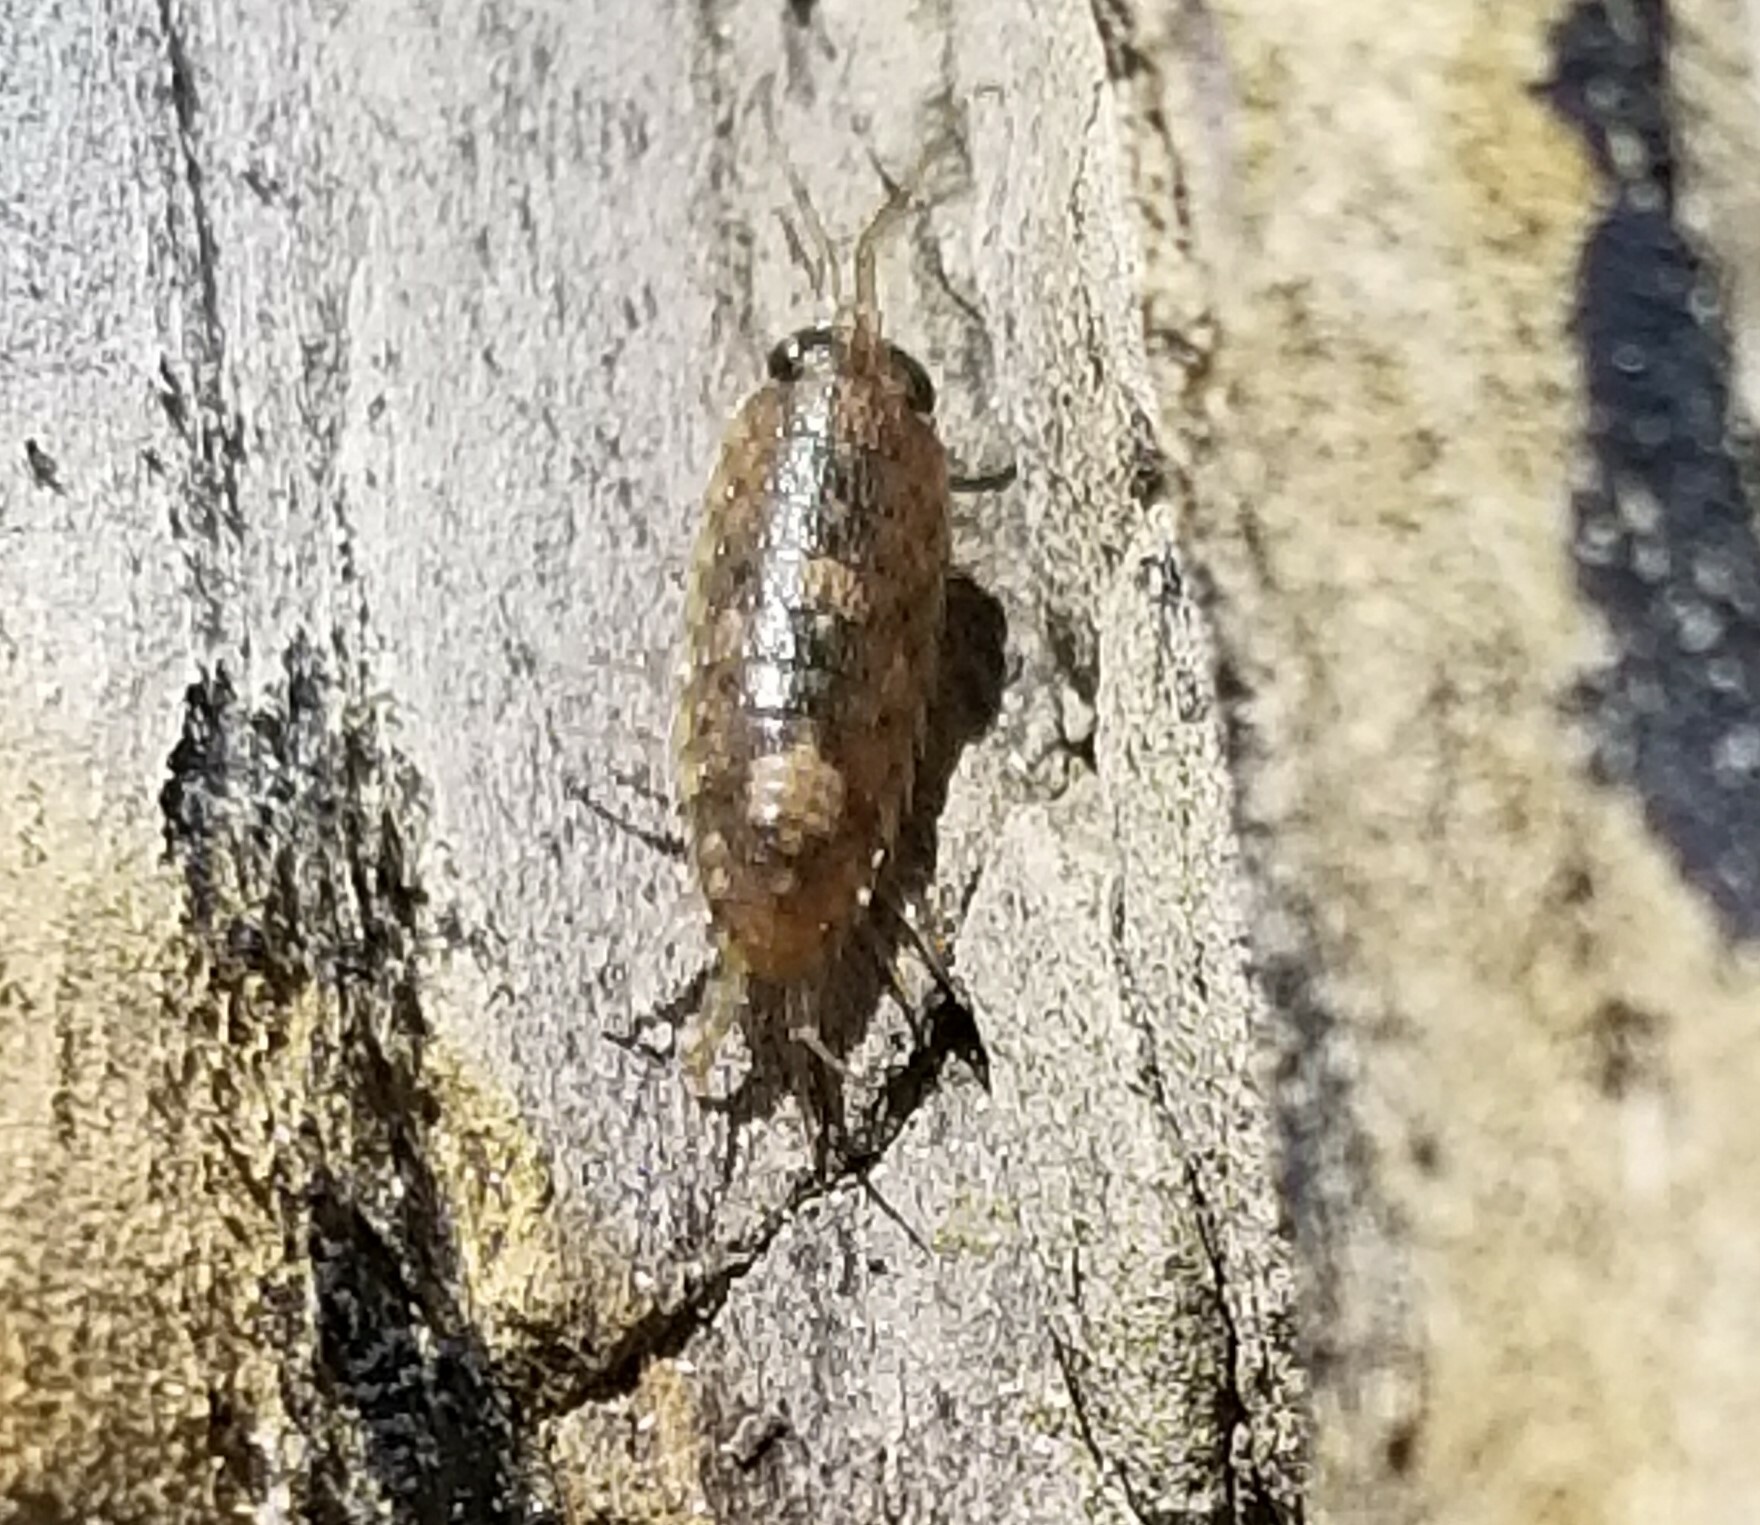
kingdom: Animalia
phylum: Arthropoda
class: Malacostraca
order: Isopoda
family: Ligiidae
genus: Ligia
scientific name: Ligia occidentalis
